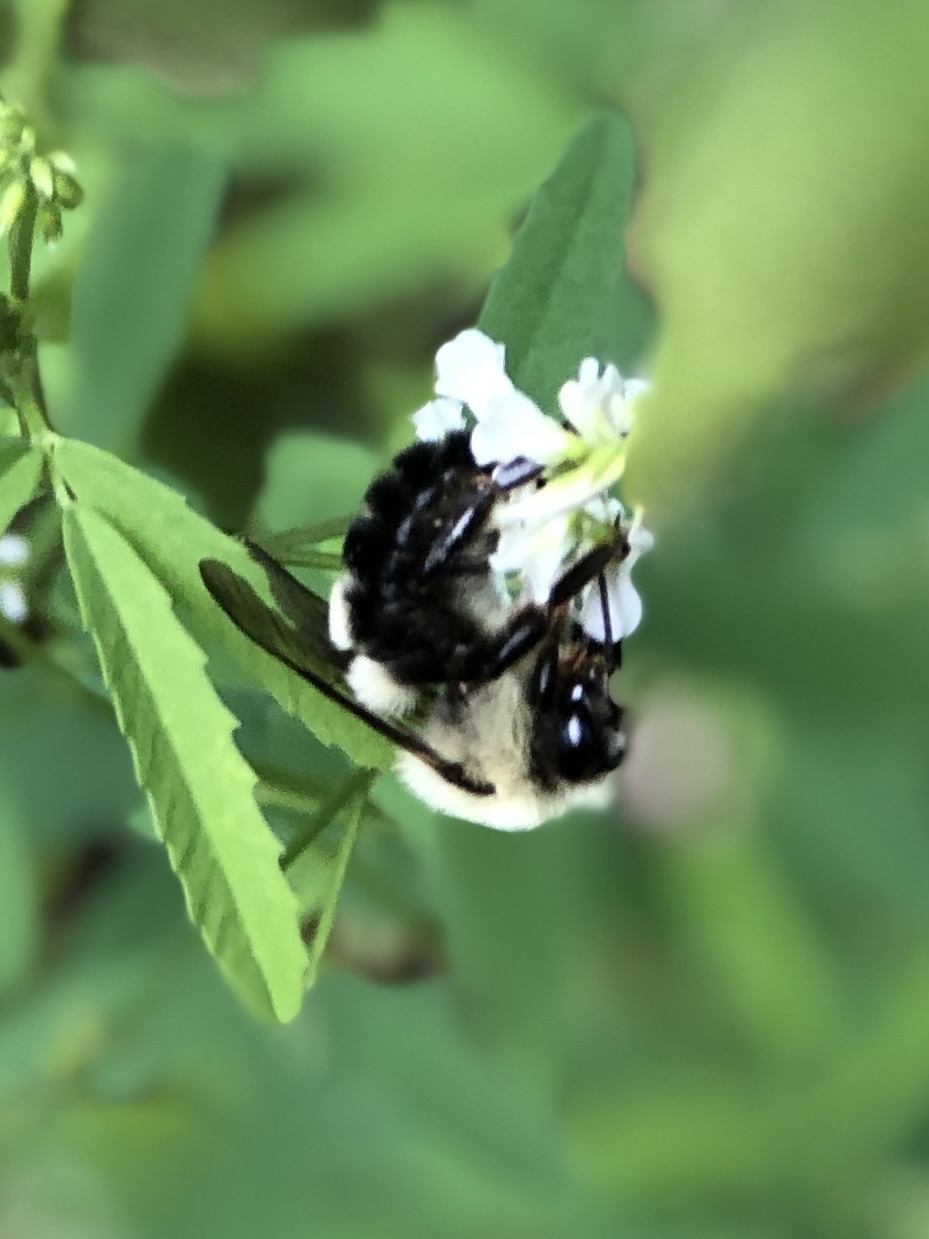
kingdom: Animalia
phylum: Arthropoda
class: Insecta
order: Hymenoptera
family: Apidae
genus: Bombus
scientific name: Bombus
